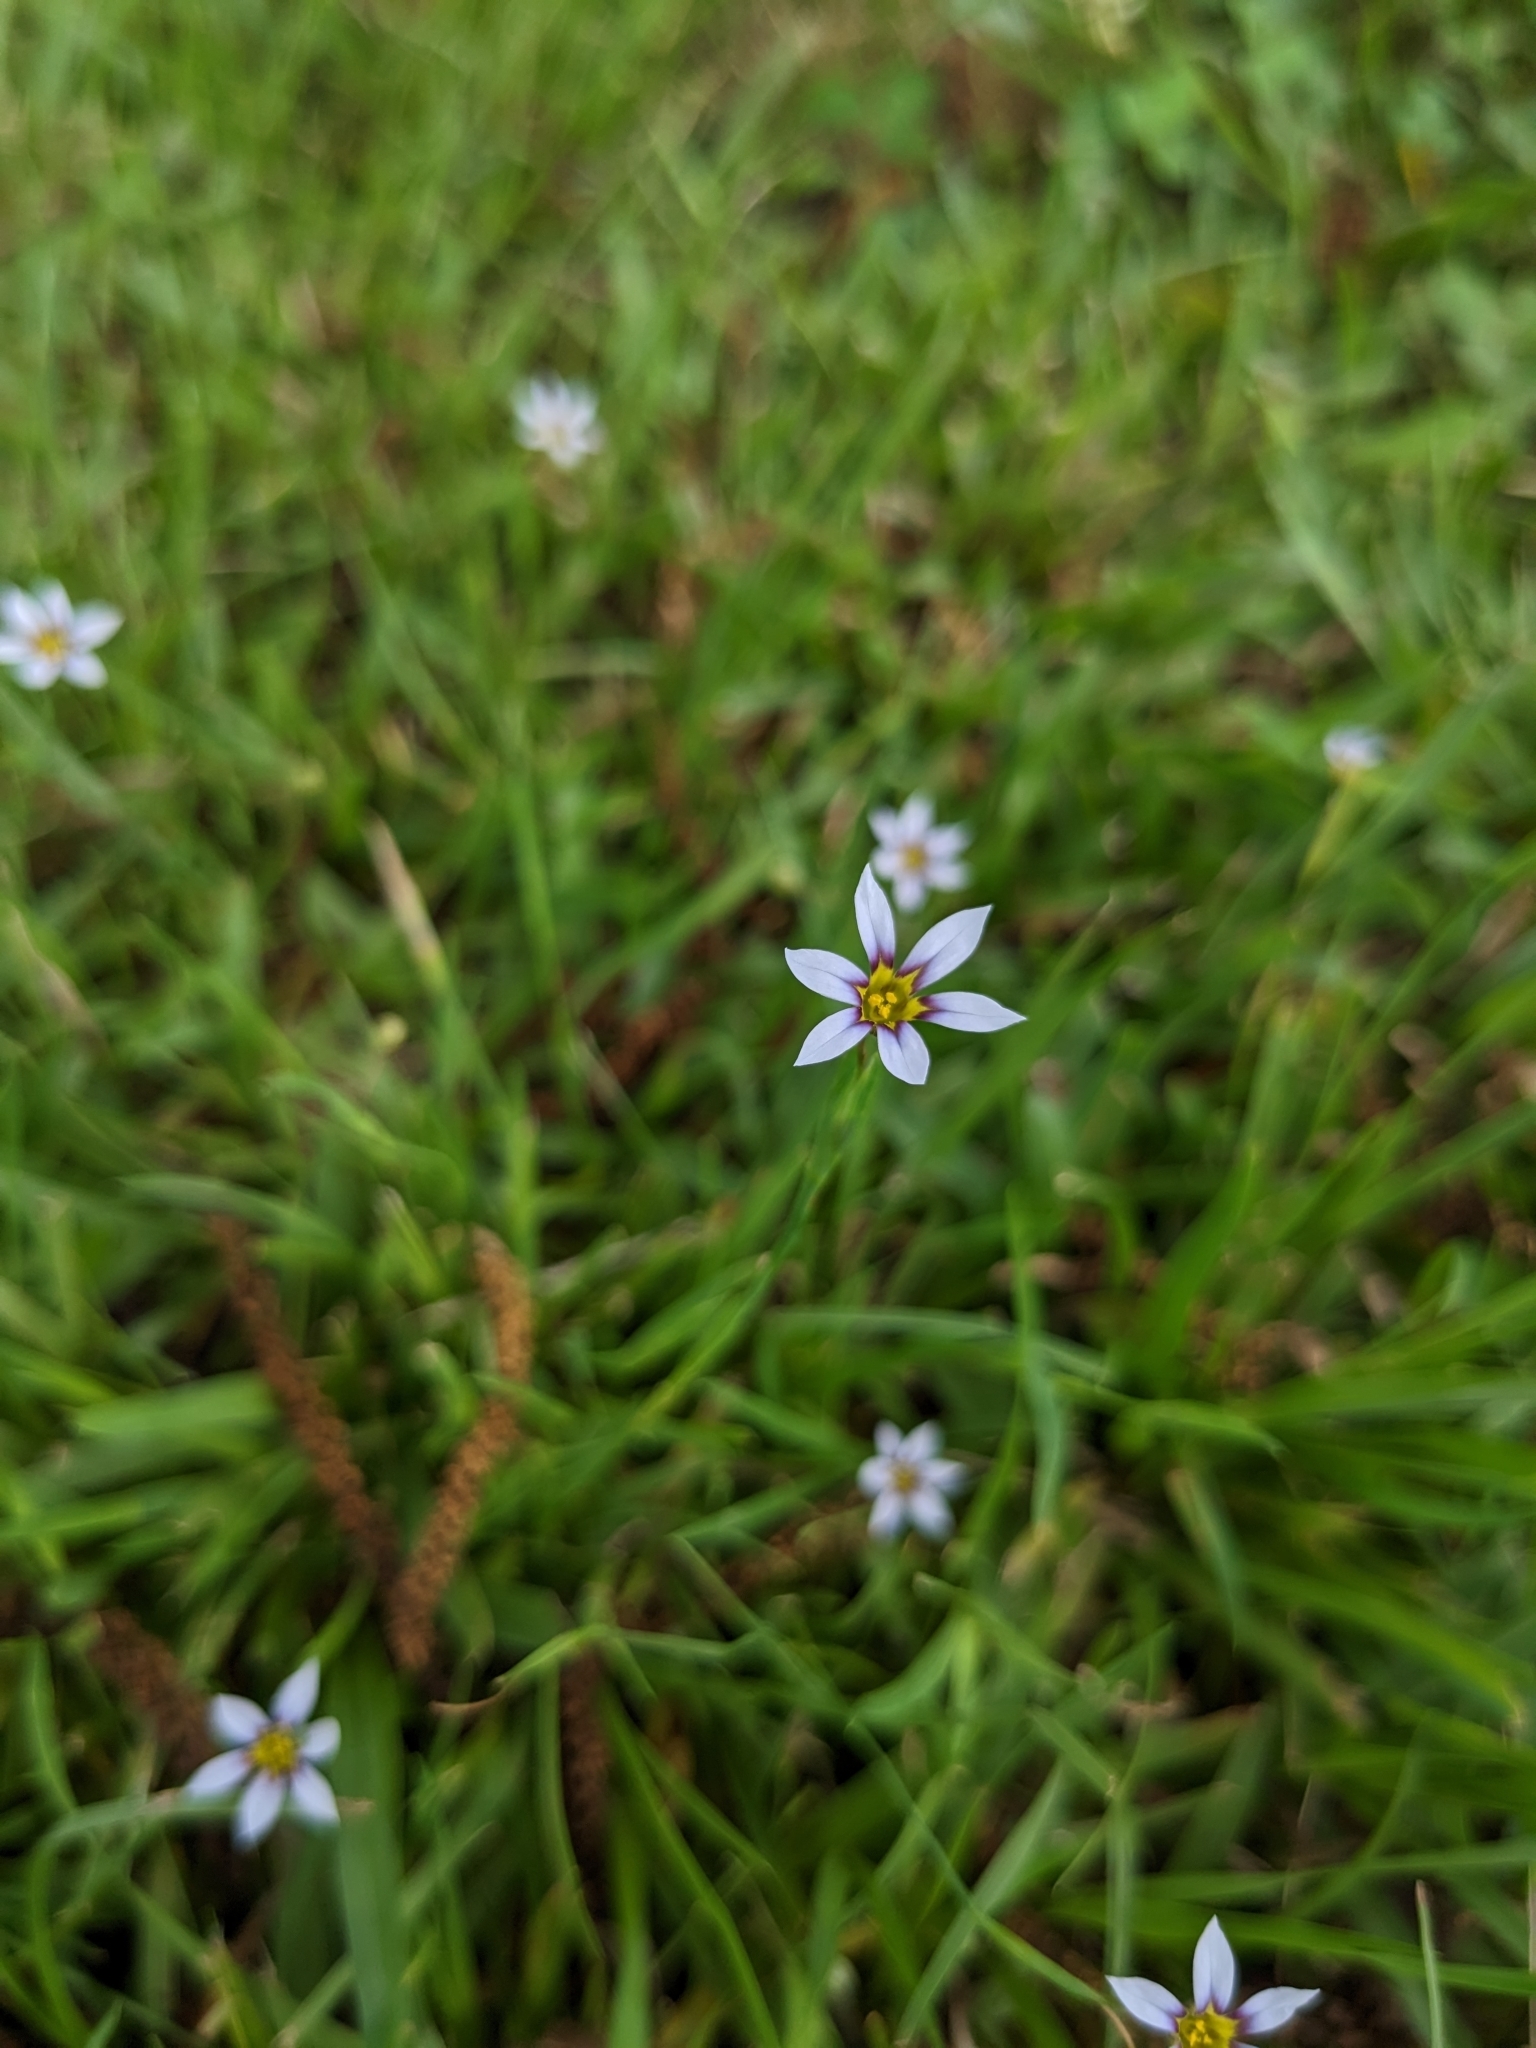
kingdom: Plantae
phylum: Tracheophyta
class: Liliopsida
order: Asparagales
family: Iridaceae
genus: Sisyrinchium
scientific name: Sisyrinchium micranthum
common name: Bermuda pigroot
